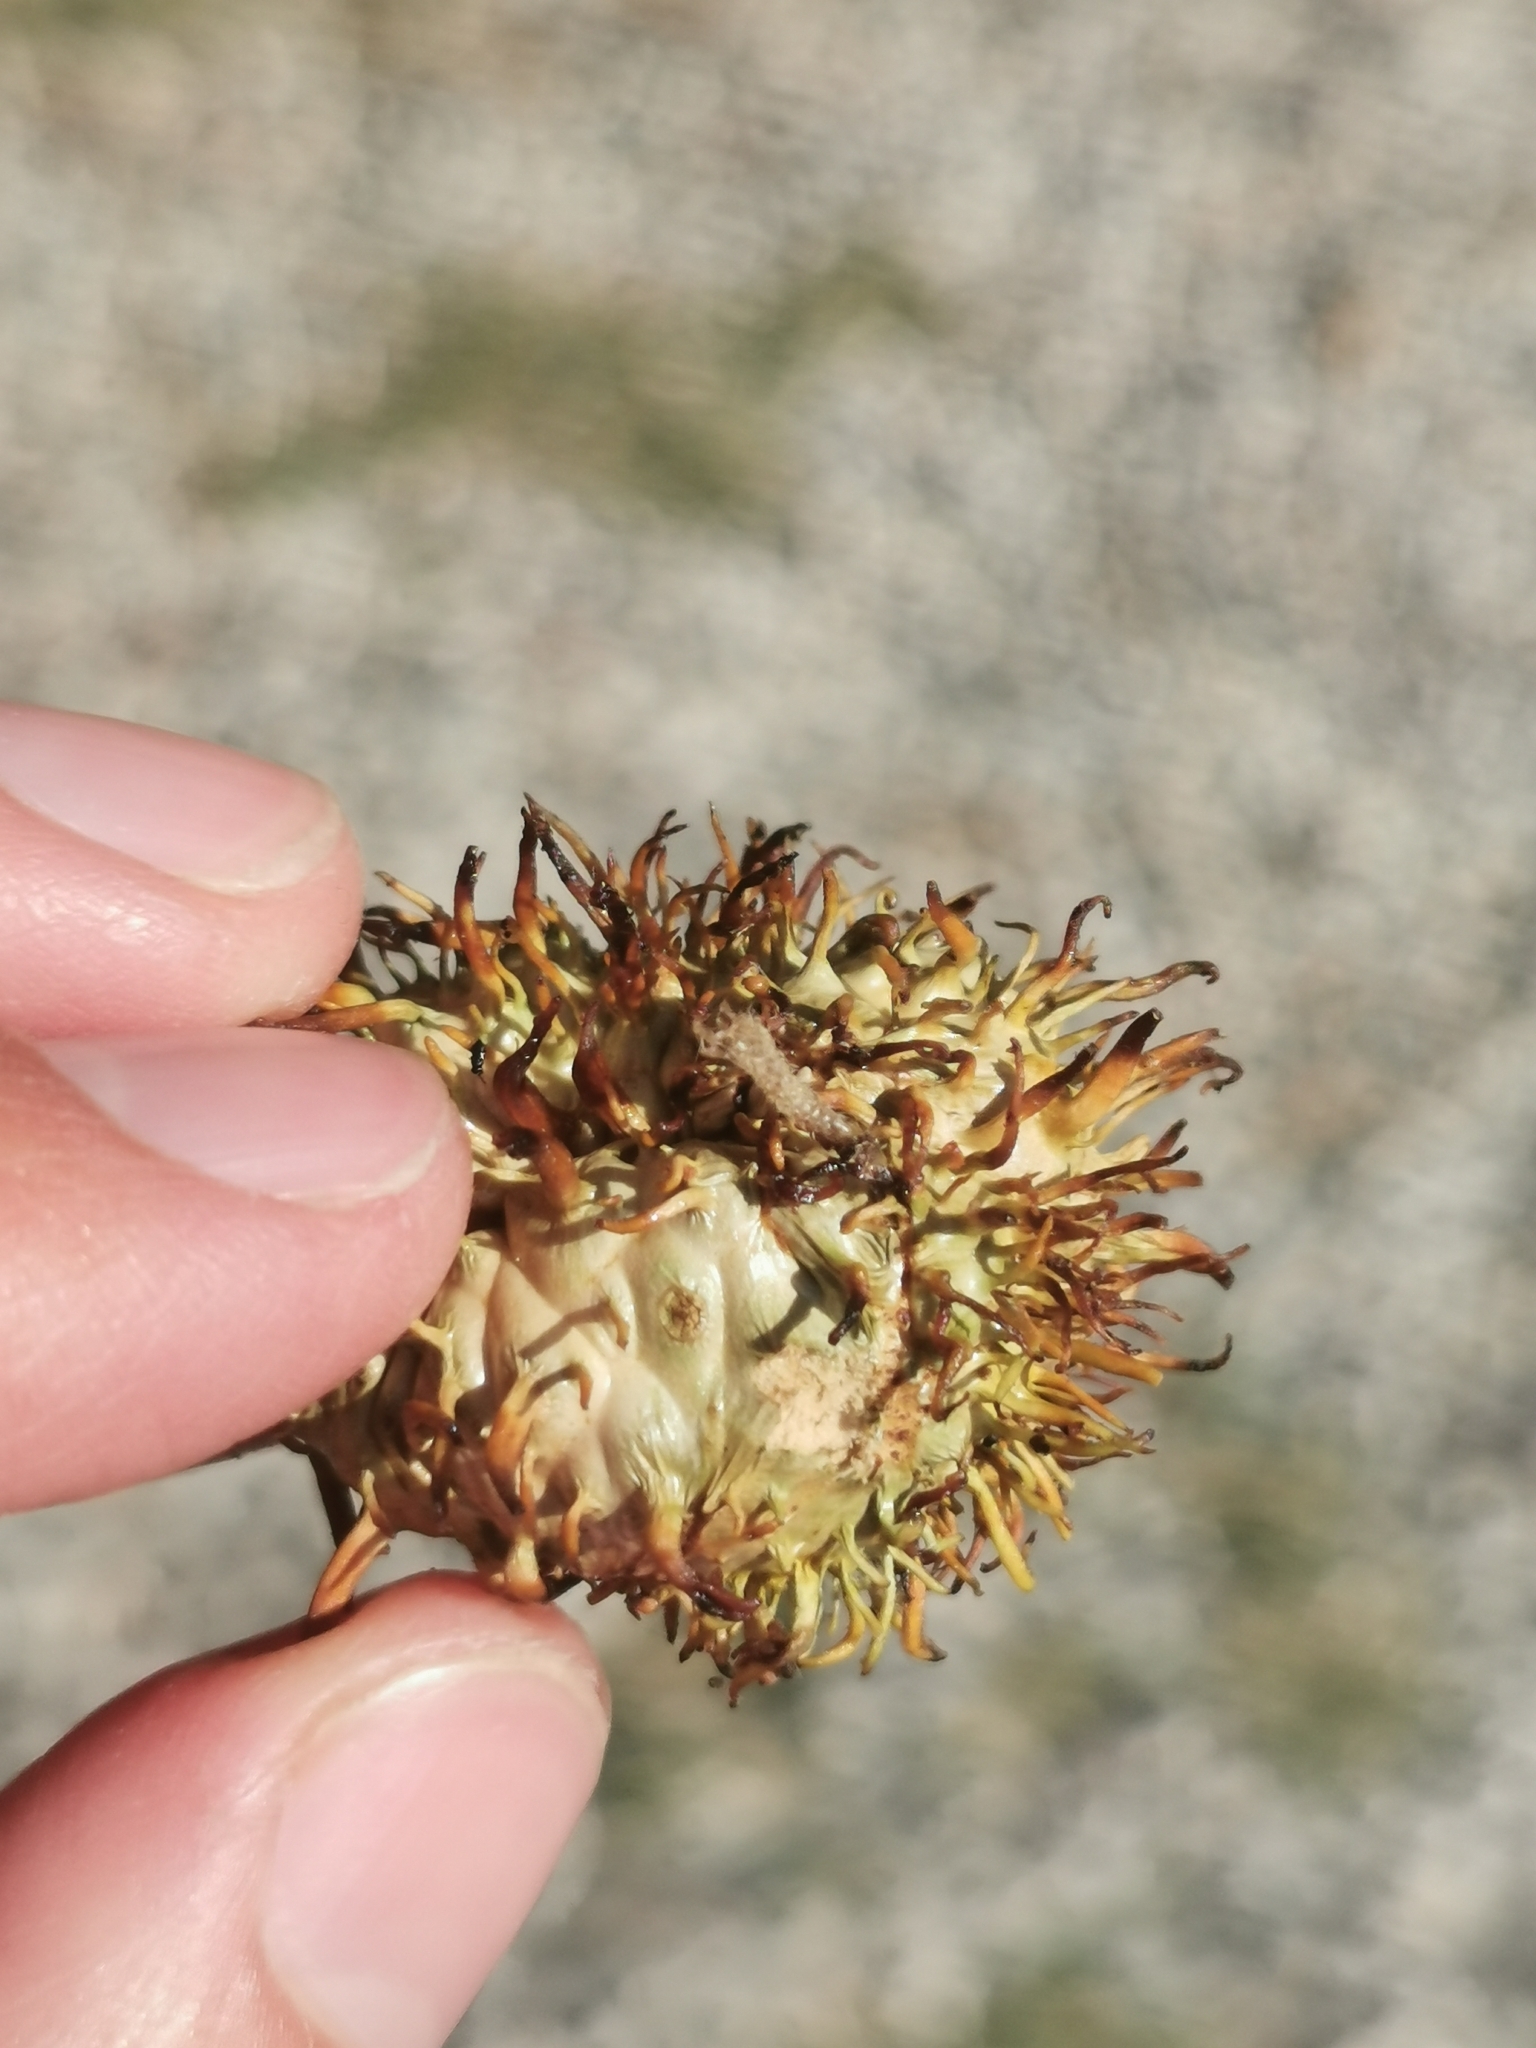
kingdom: Animalia
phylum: Arthropoda
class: Insecta
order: Hymenoptera
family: Cynipidae
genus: Andricus
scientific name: Andricus seckendorffi
